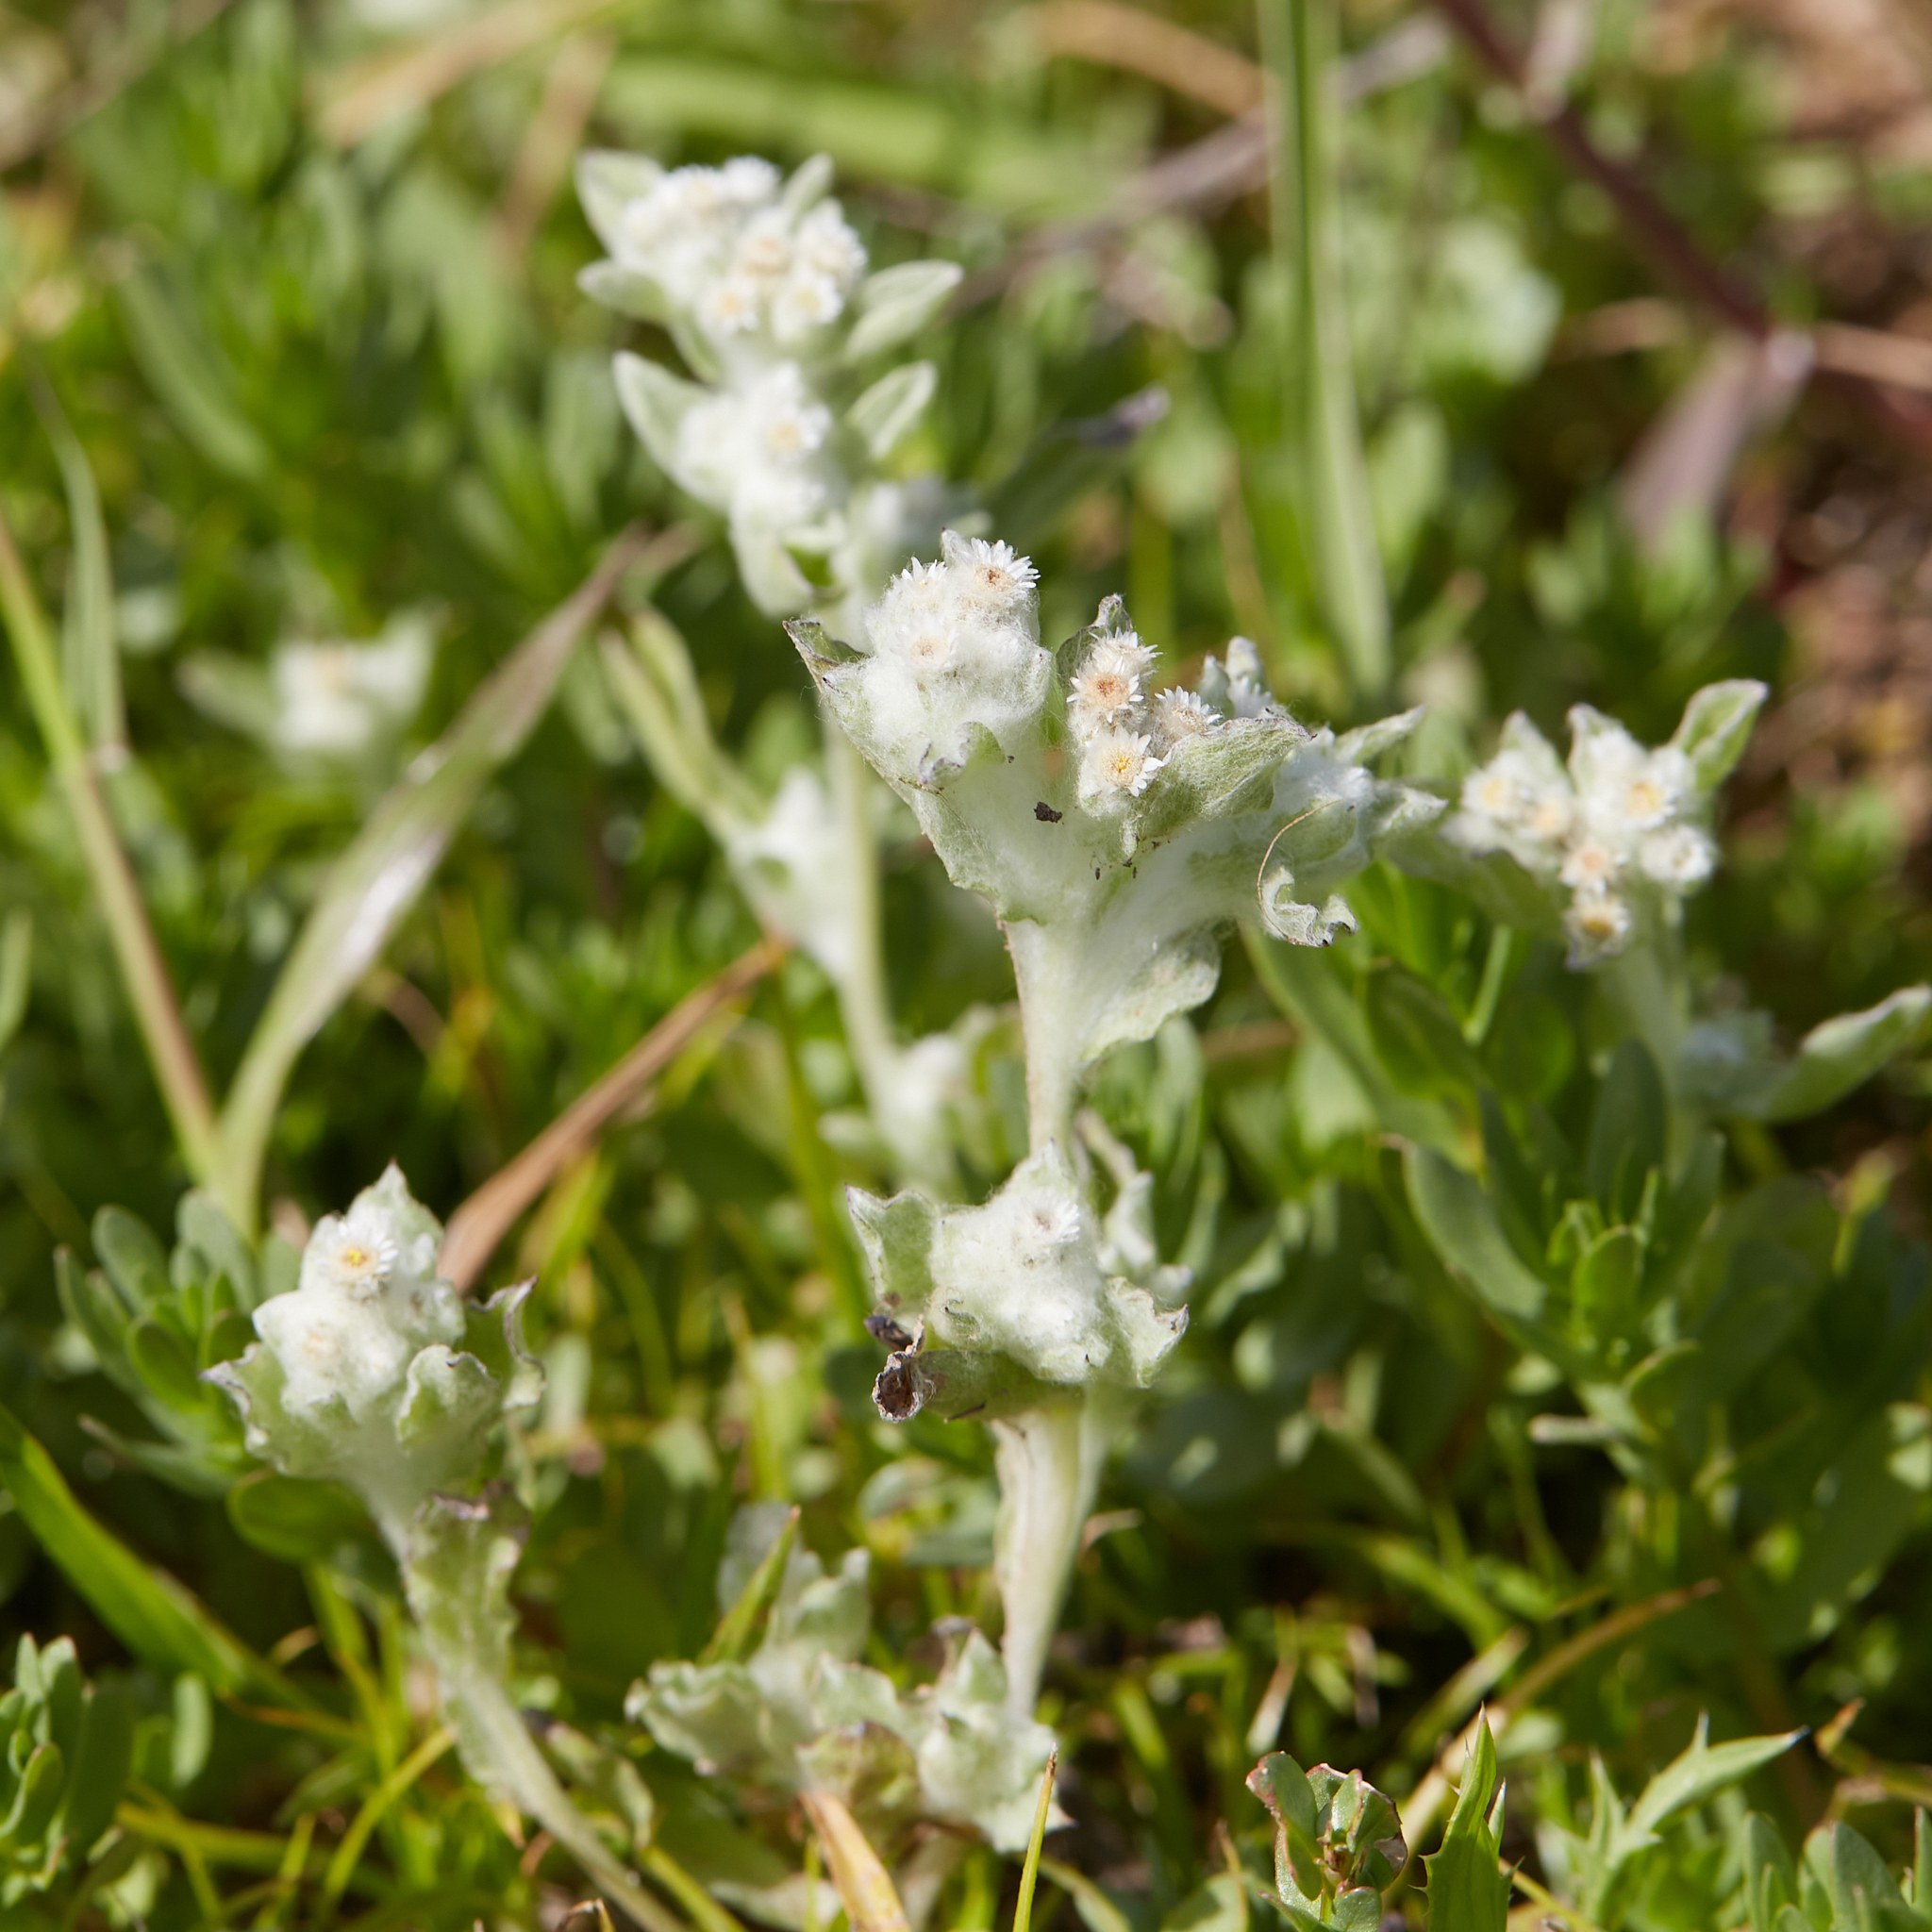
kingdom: Plantae
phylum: Tracheophyta
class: Magnoliopsida
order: Asterales
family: Asteraceae
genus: Gnaphalium
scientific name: Gnaphalium palustre
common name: Western marsh cudweed
